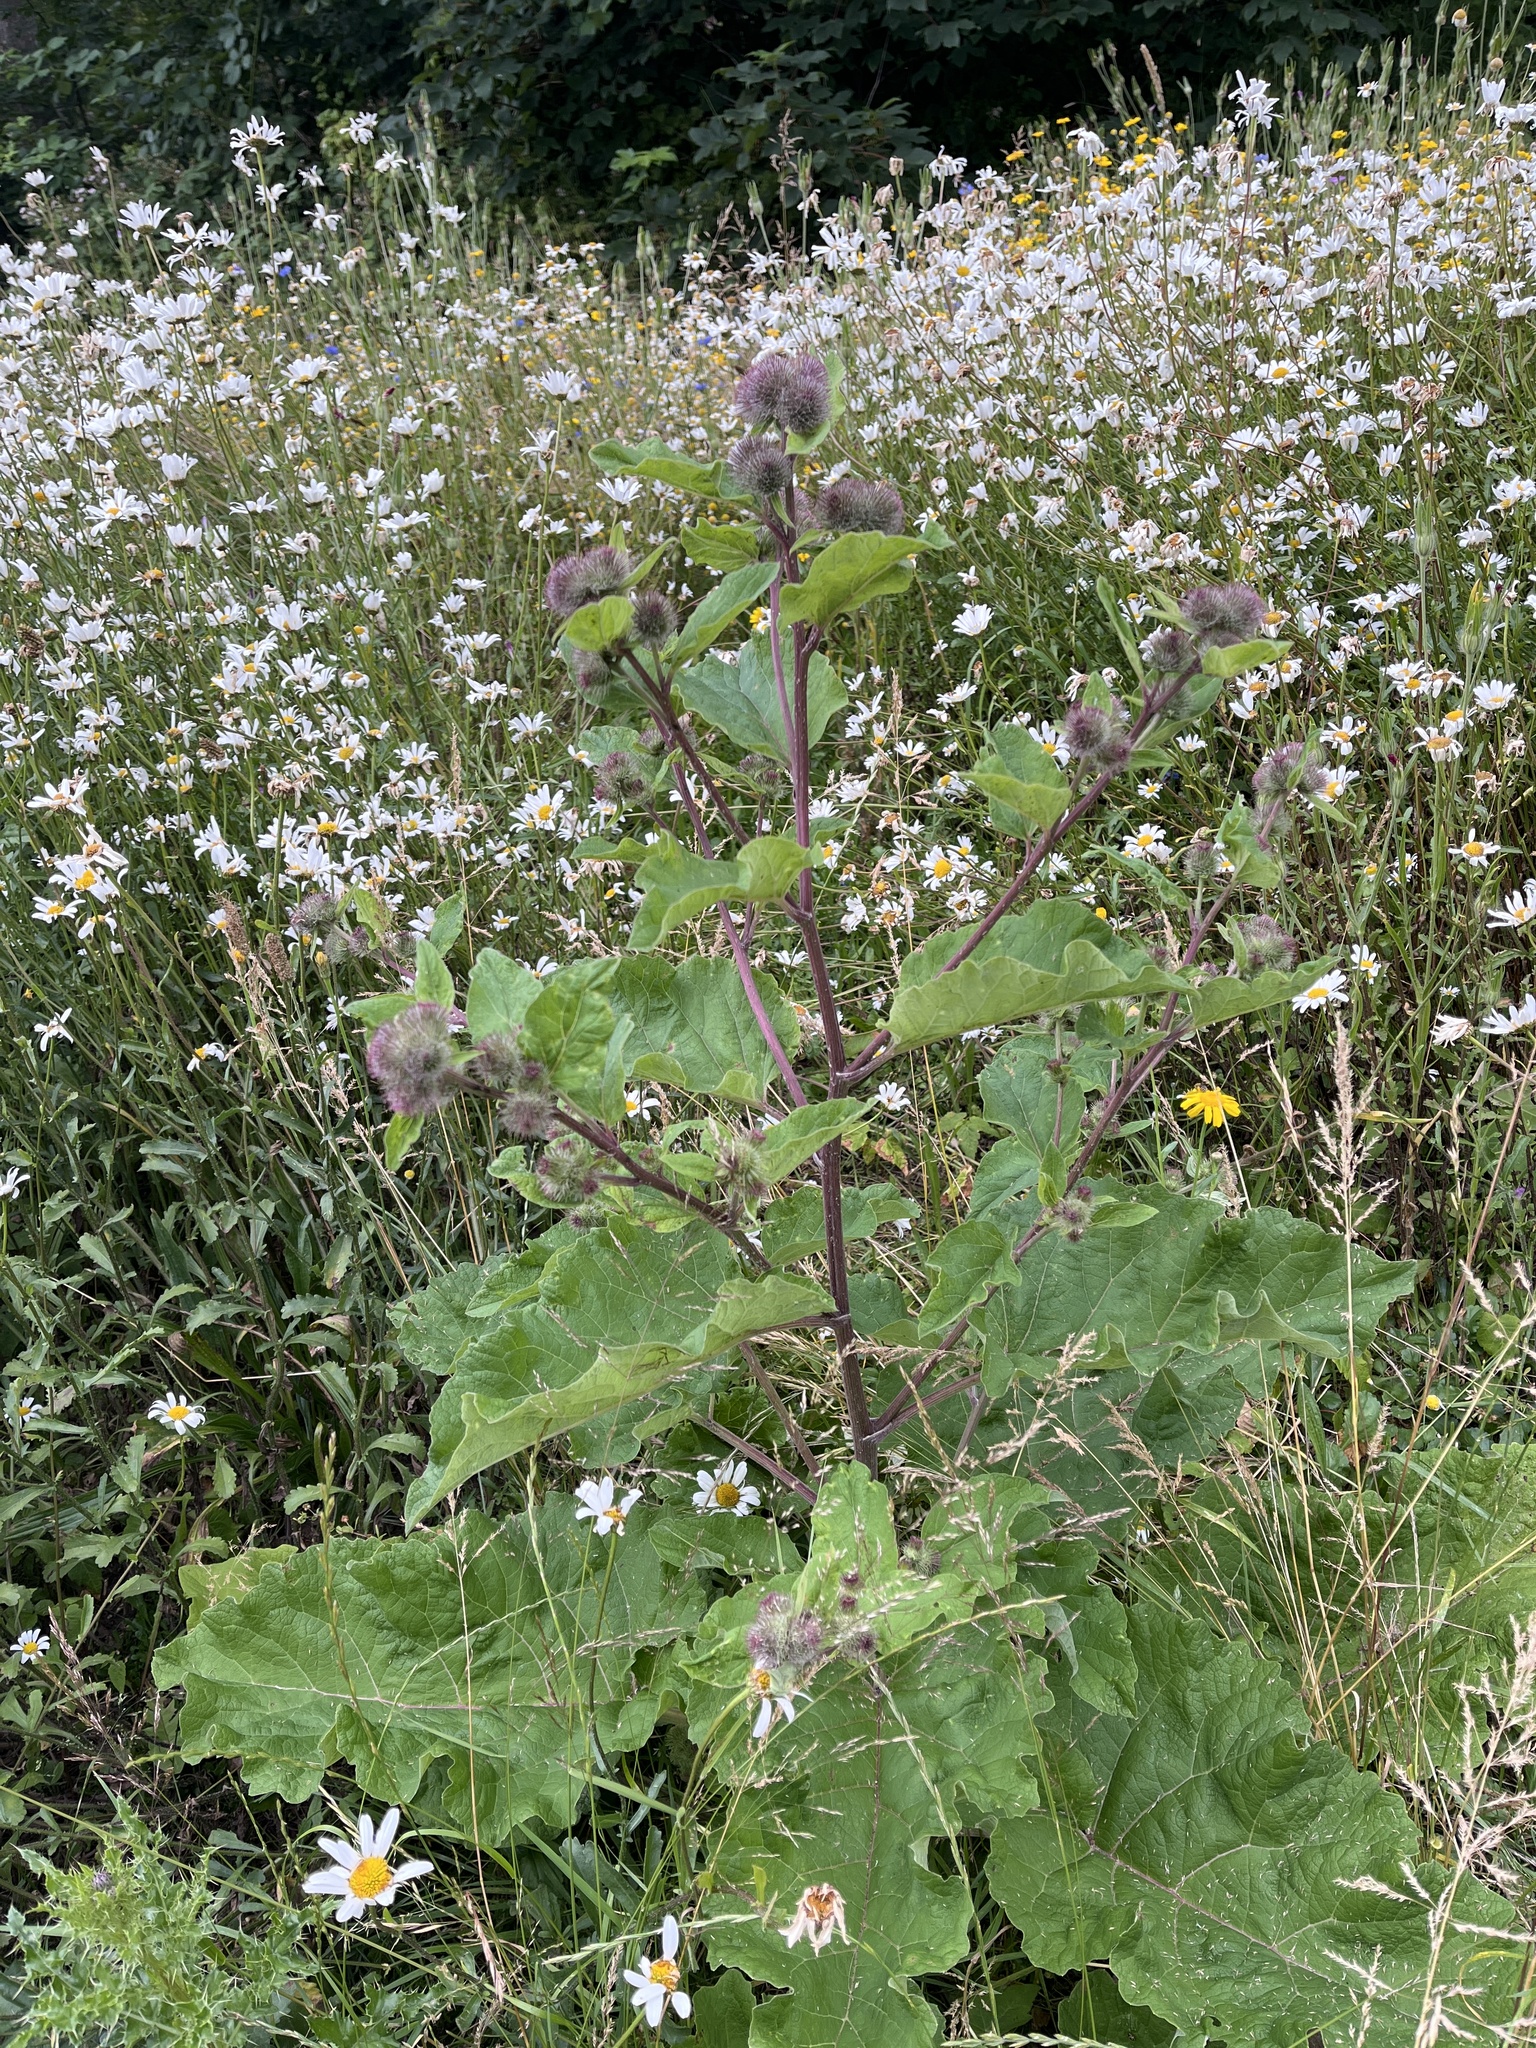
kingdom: Plantae
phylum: Tracheophyta
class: Magnoliopsida
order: Asterales
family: Asteraceae
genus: Arctium
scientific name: Arctium minus
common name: Lesser burdock
